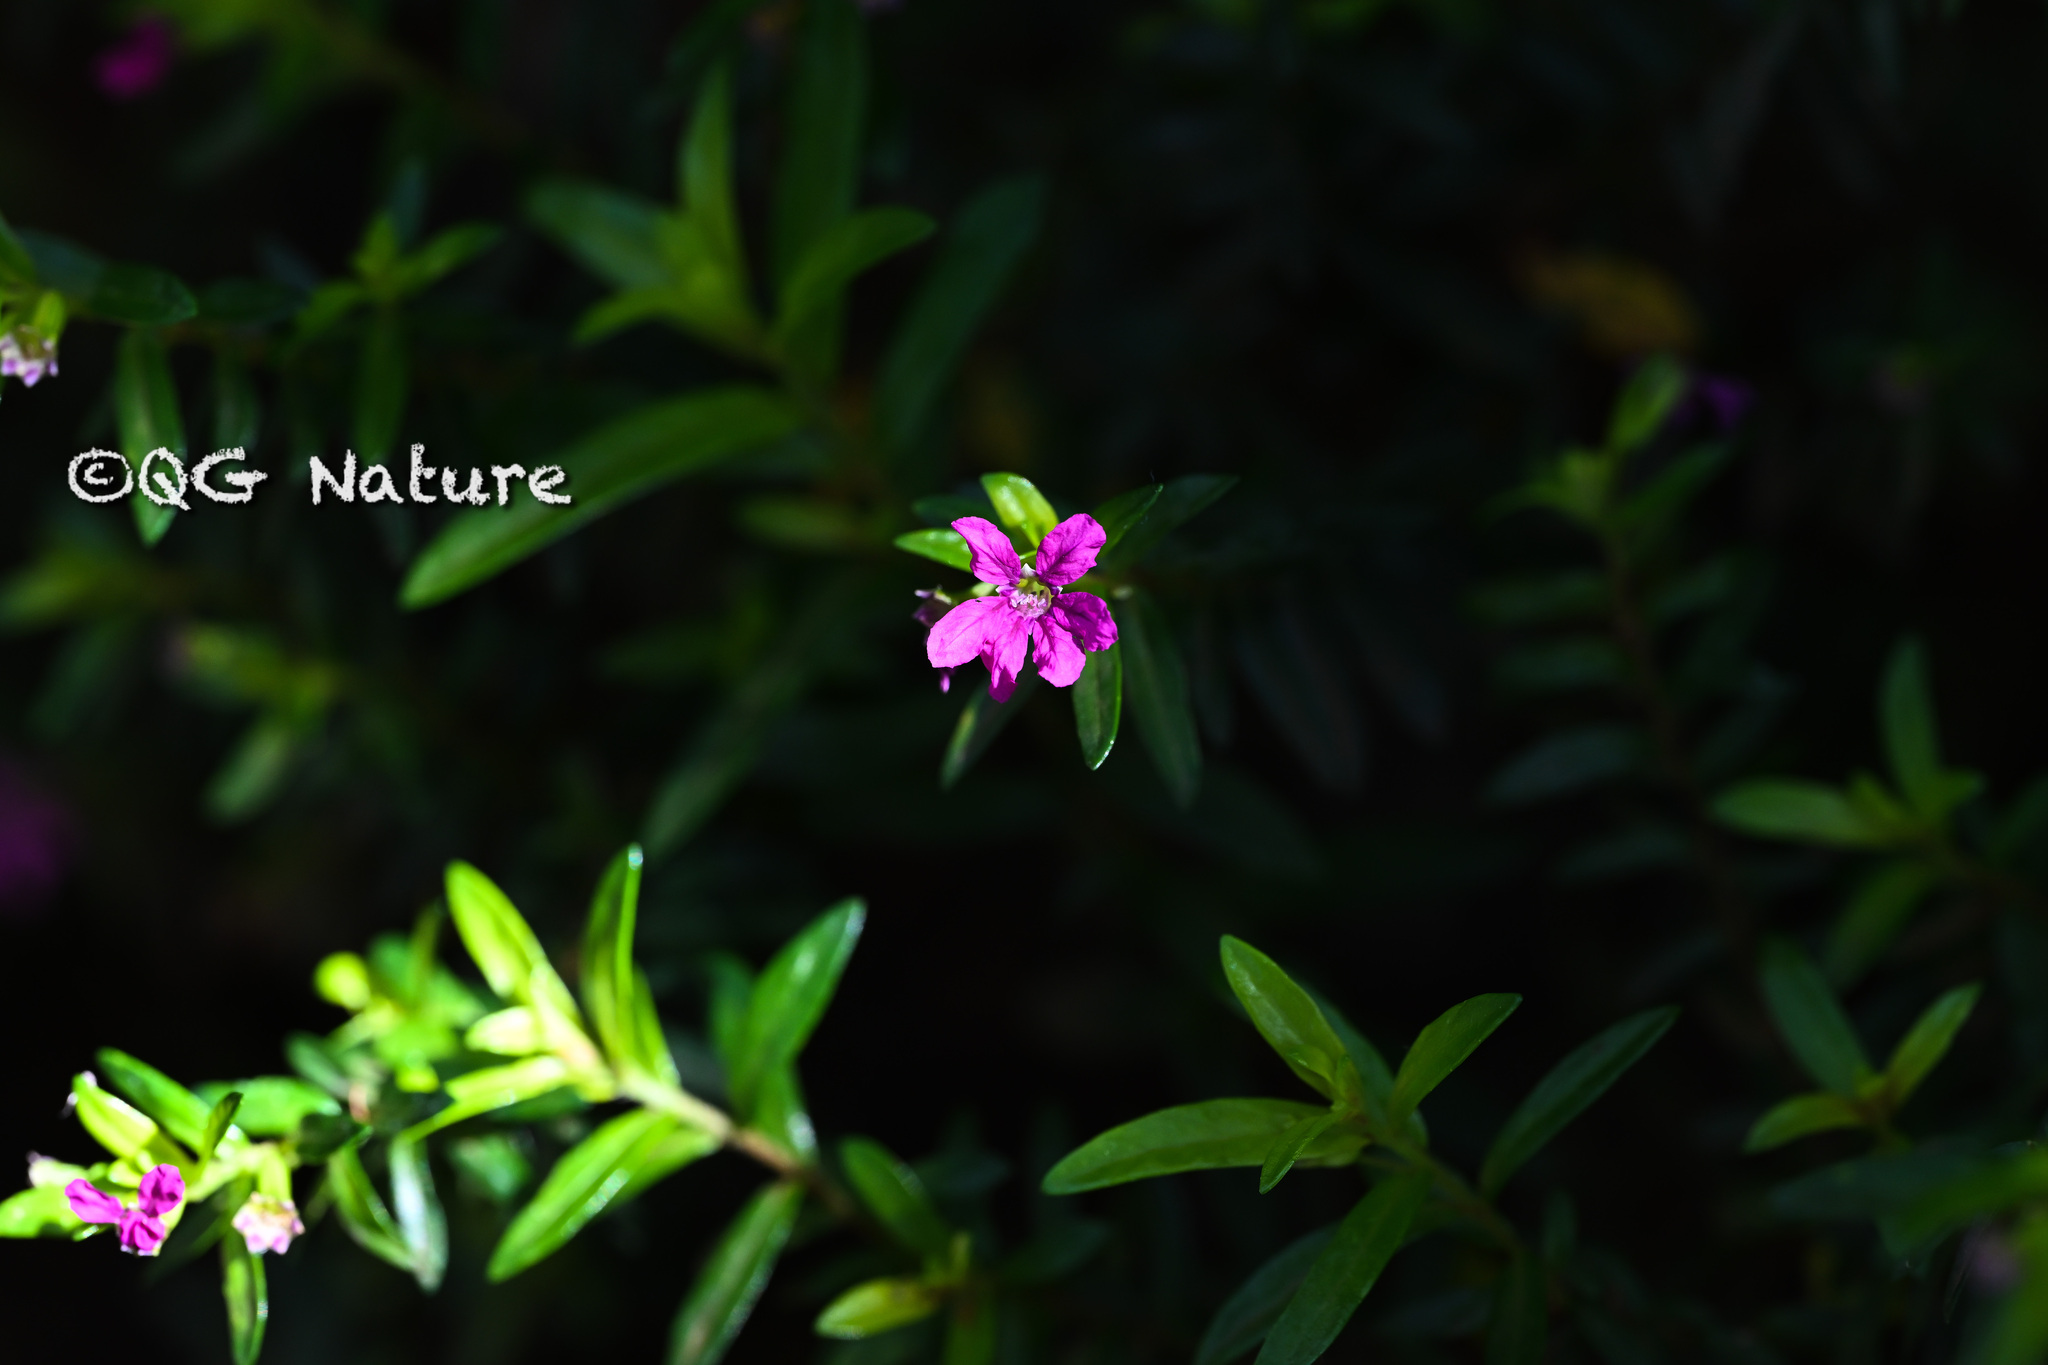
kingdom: Plantae
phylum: Tracheophyta
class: Magnoliopsida
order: Myrtales
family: Lythraceae
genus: Cuphea
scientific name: Cuphea hyssopifolia
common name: False heather
